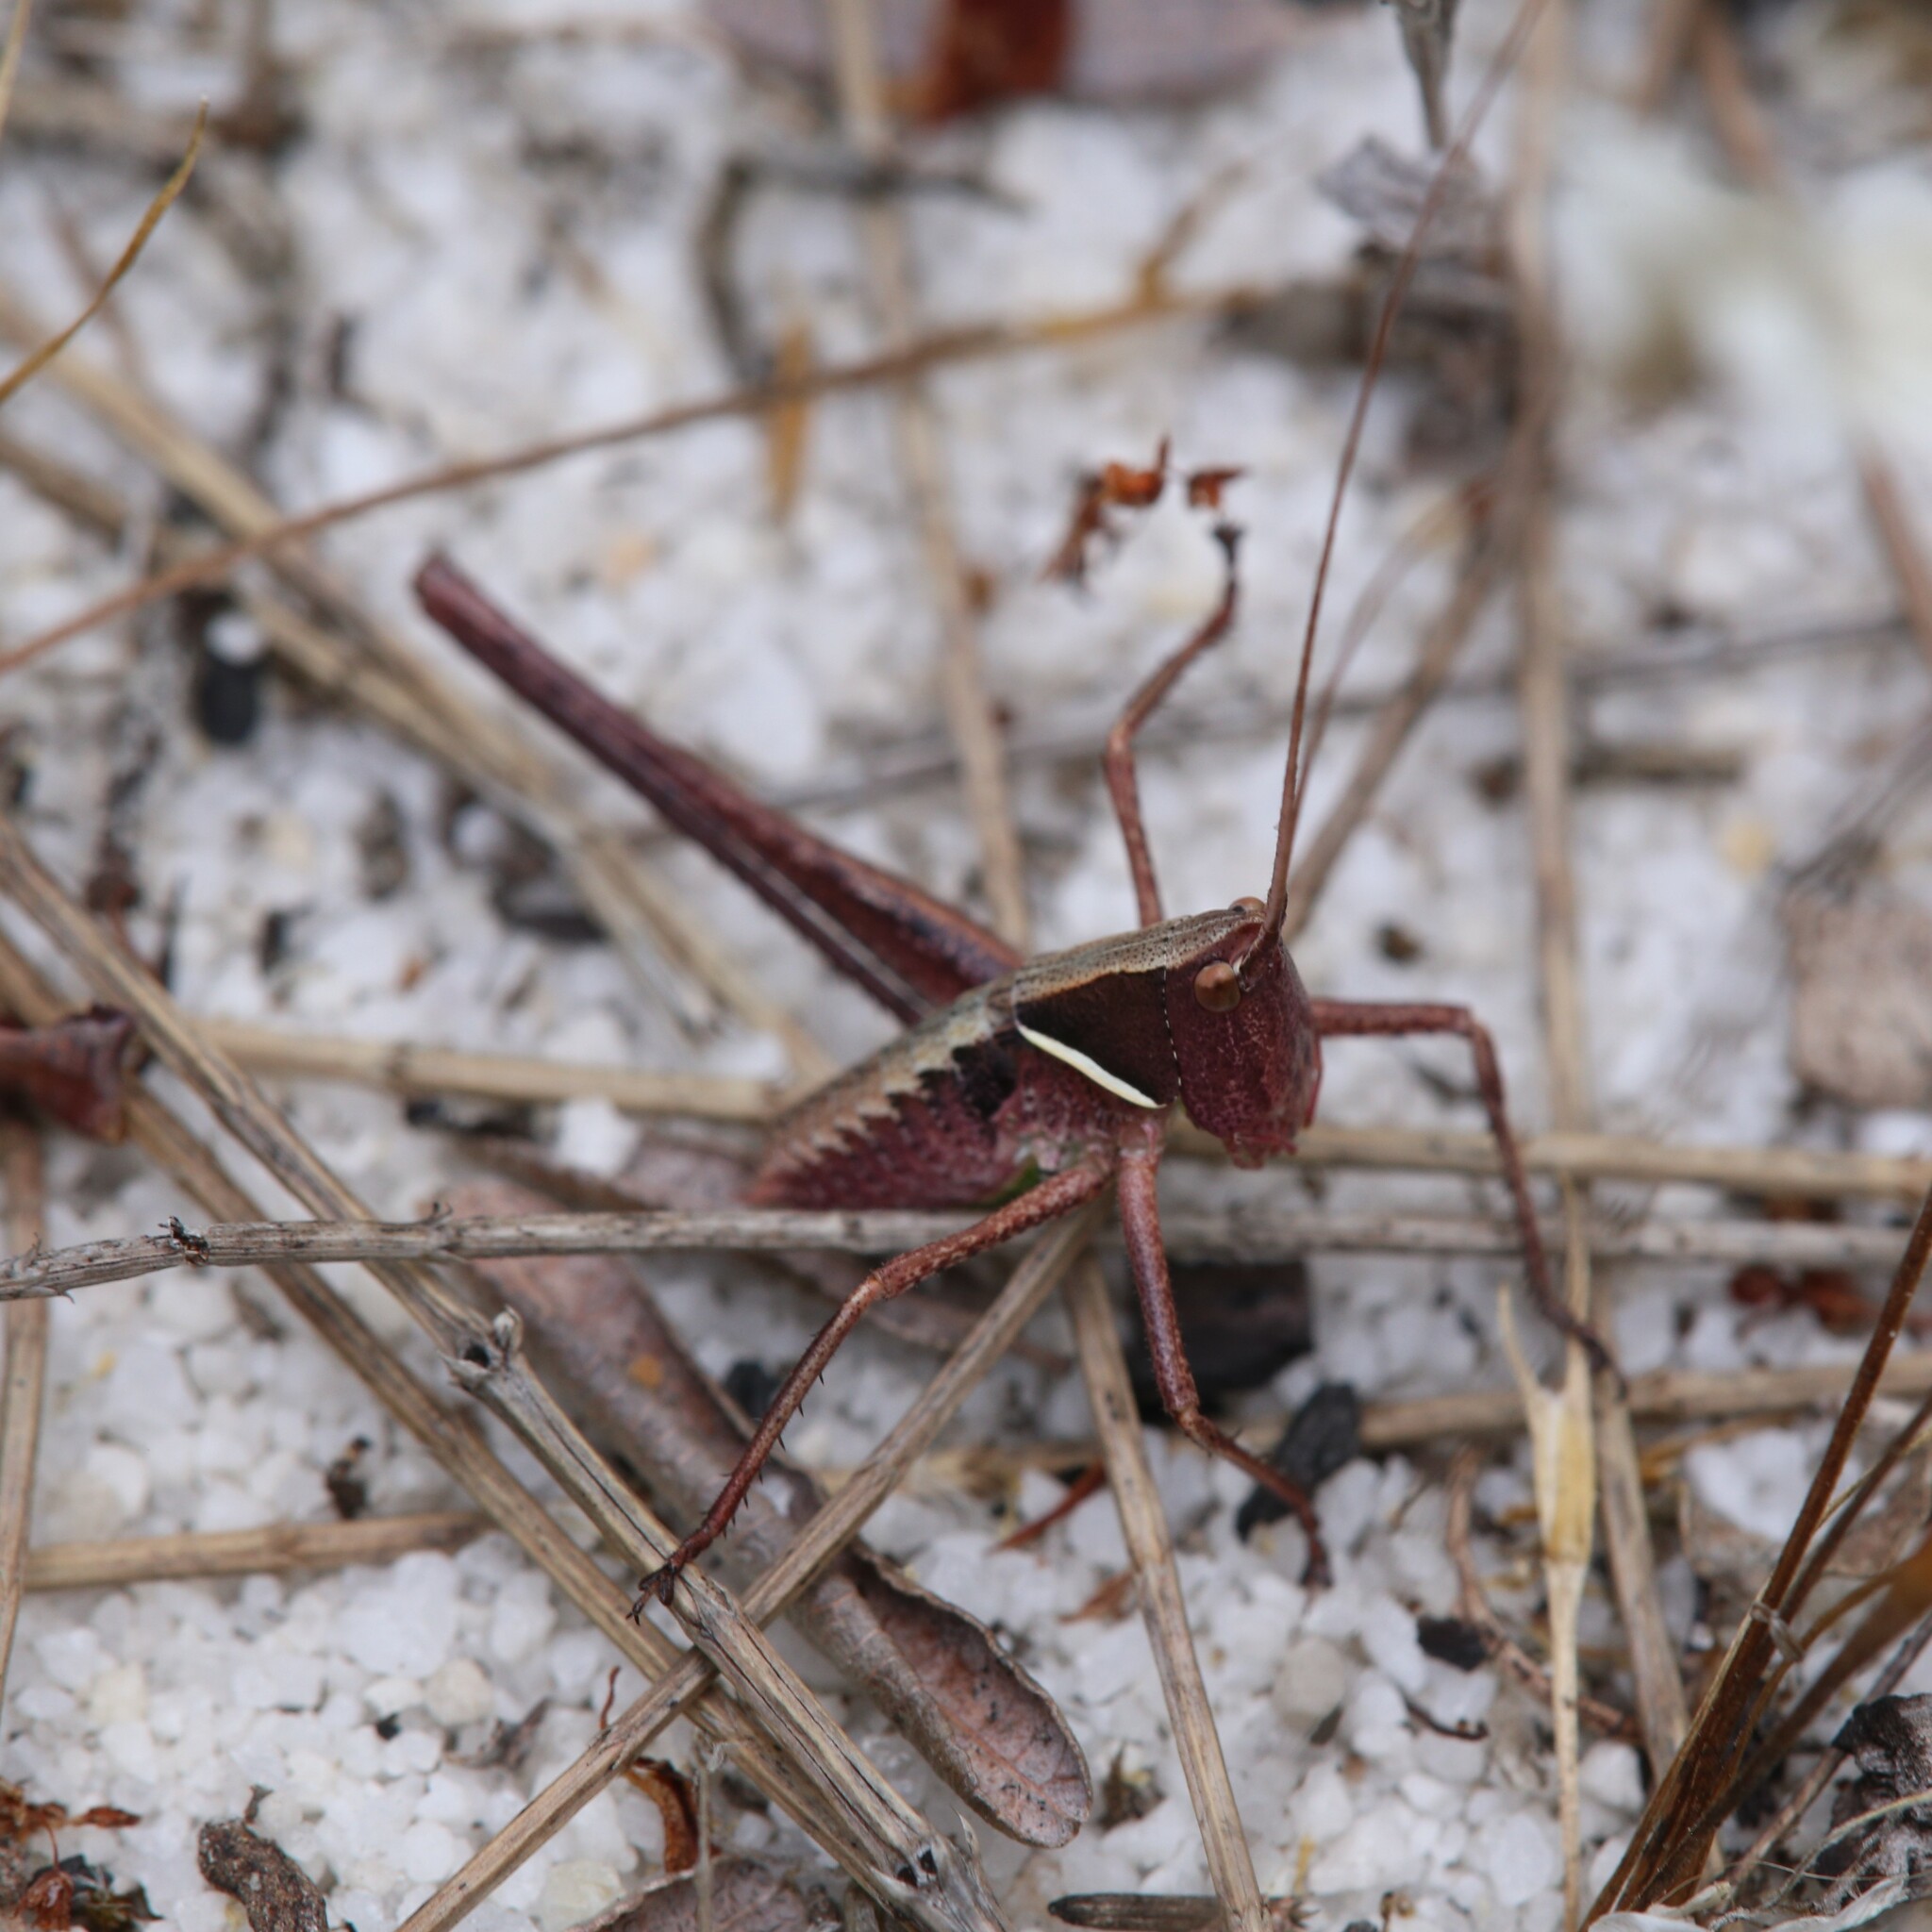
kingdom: Animalia
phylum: Arthropoda
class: Insecta
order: Orthoptera
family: Tettigoniidae
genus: Xederra
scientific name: Xederra squamiger
